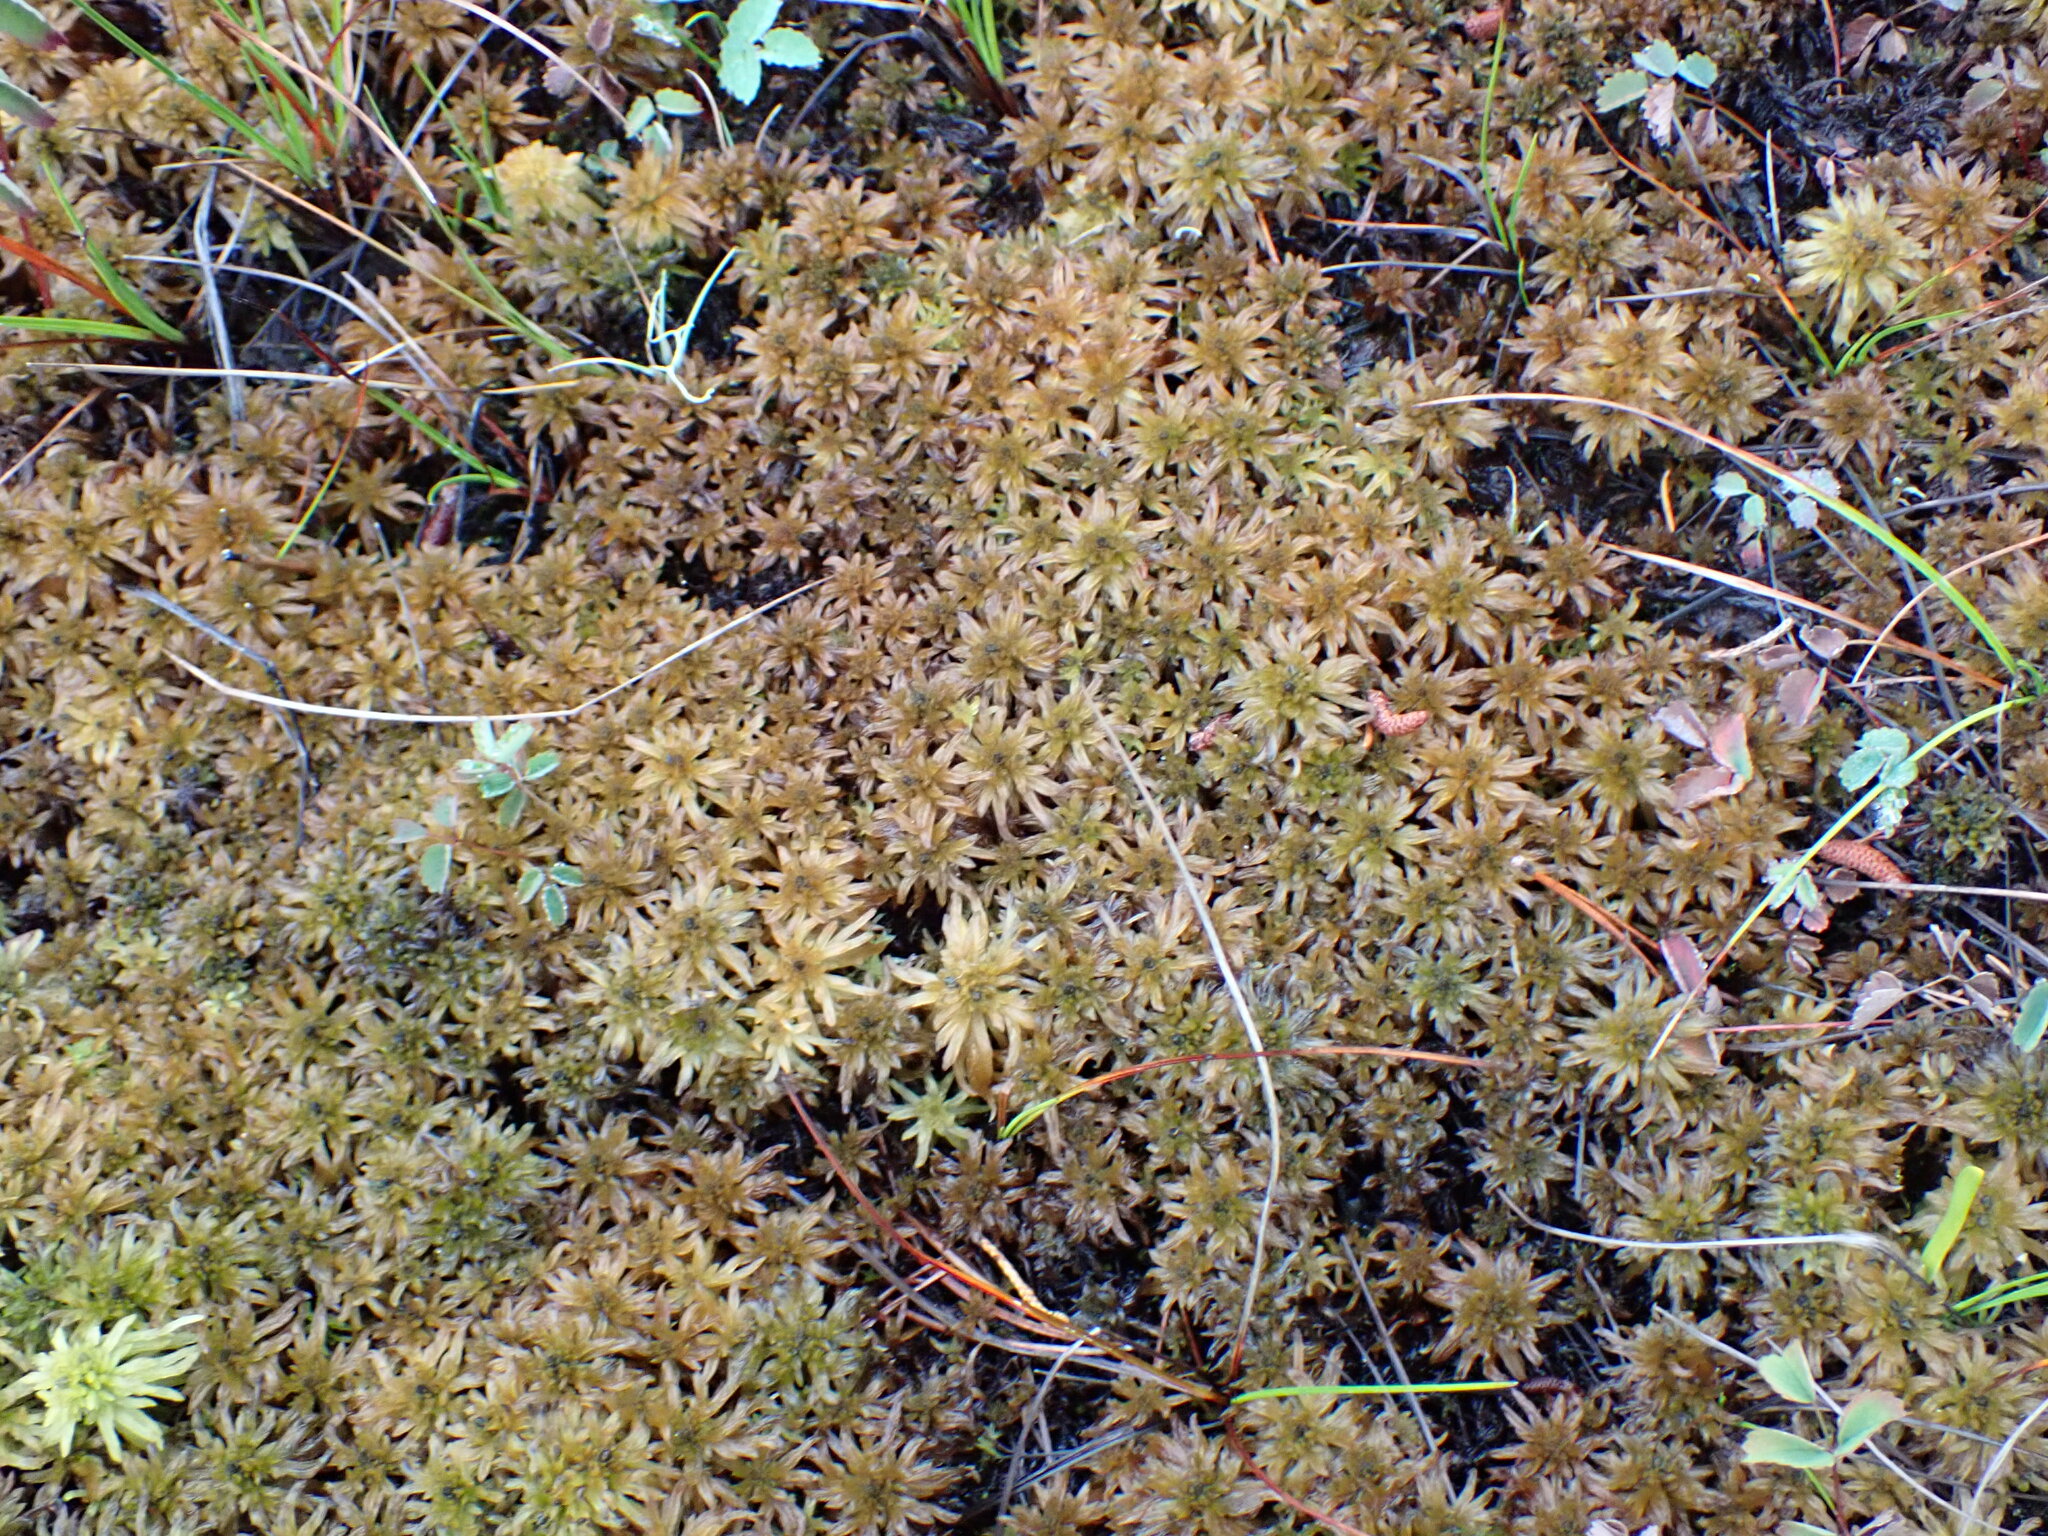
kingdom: Plantae
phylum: Bryophyta
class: Sphagnopsida
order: Sphagnales
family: Sphagnaceae
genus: Sphagnum
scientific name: Sphagnum lindbergii
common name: Lindberg's peat moss
